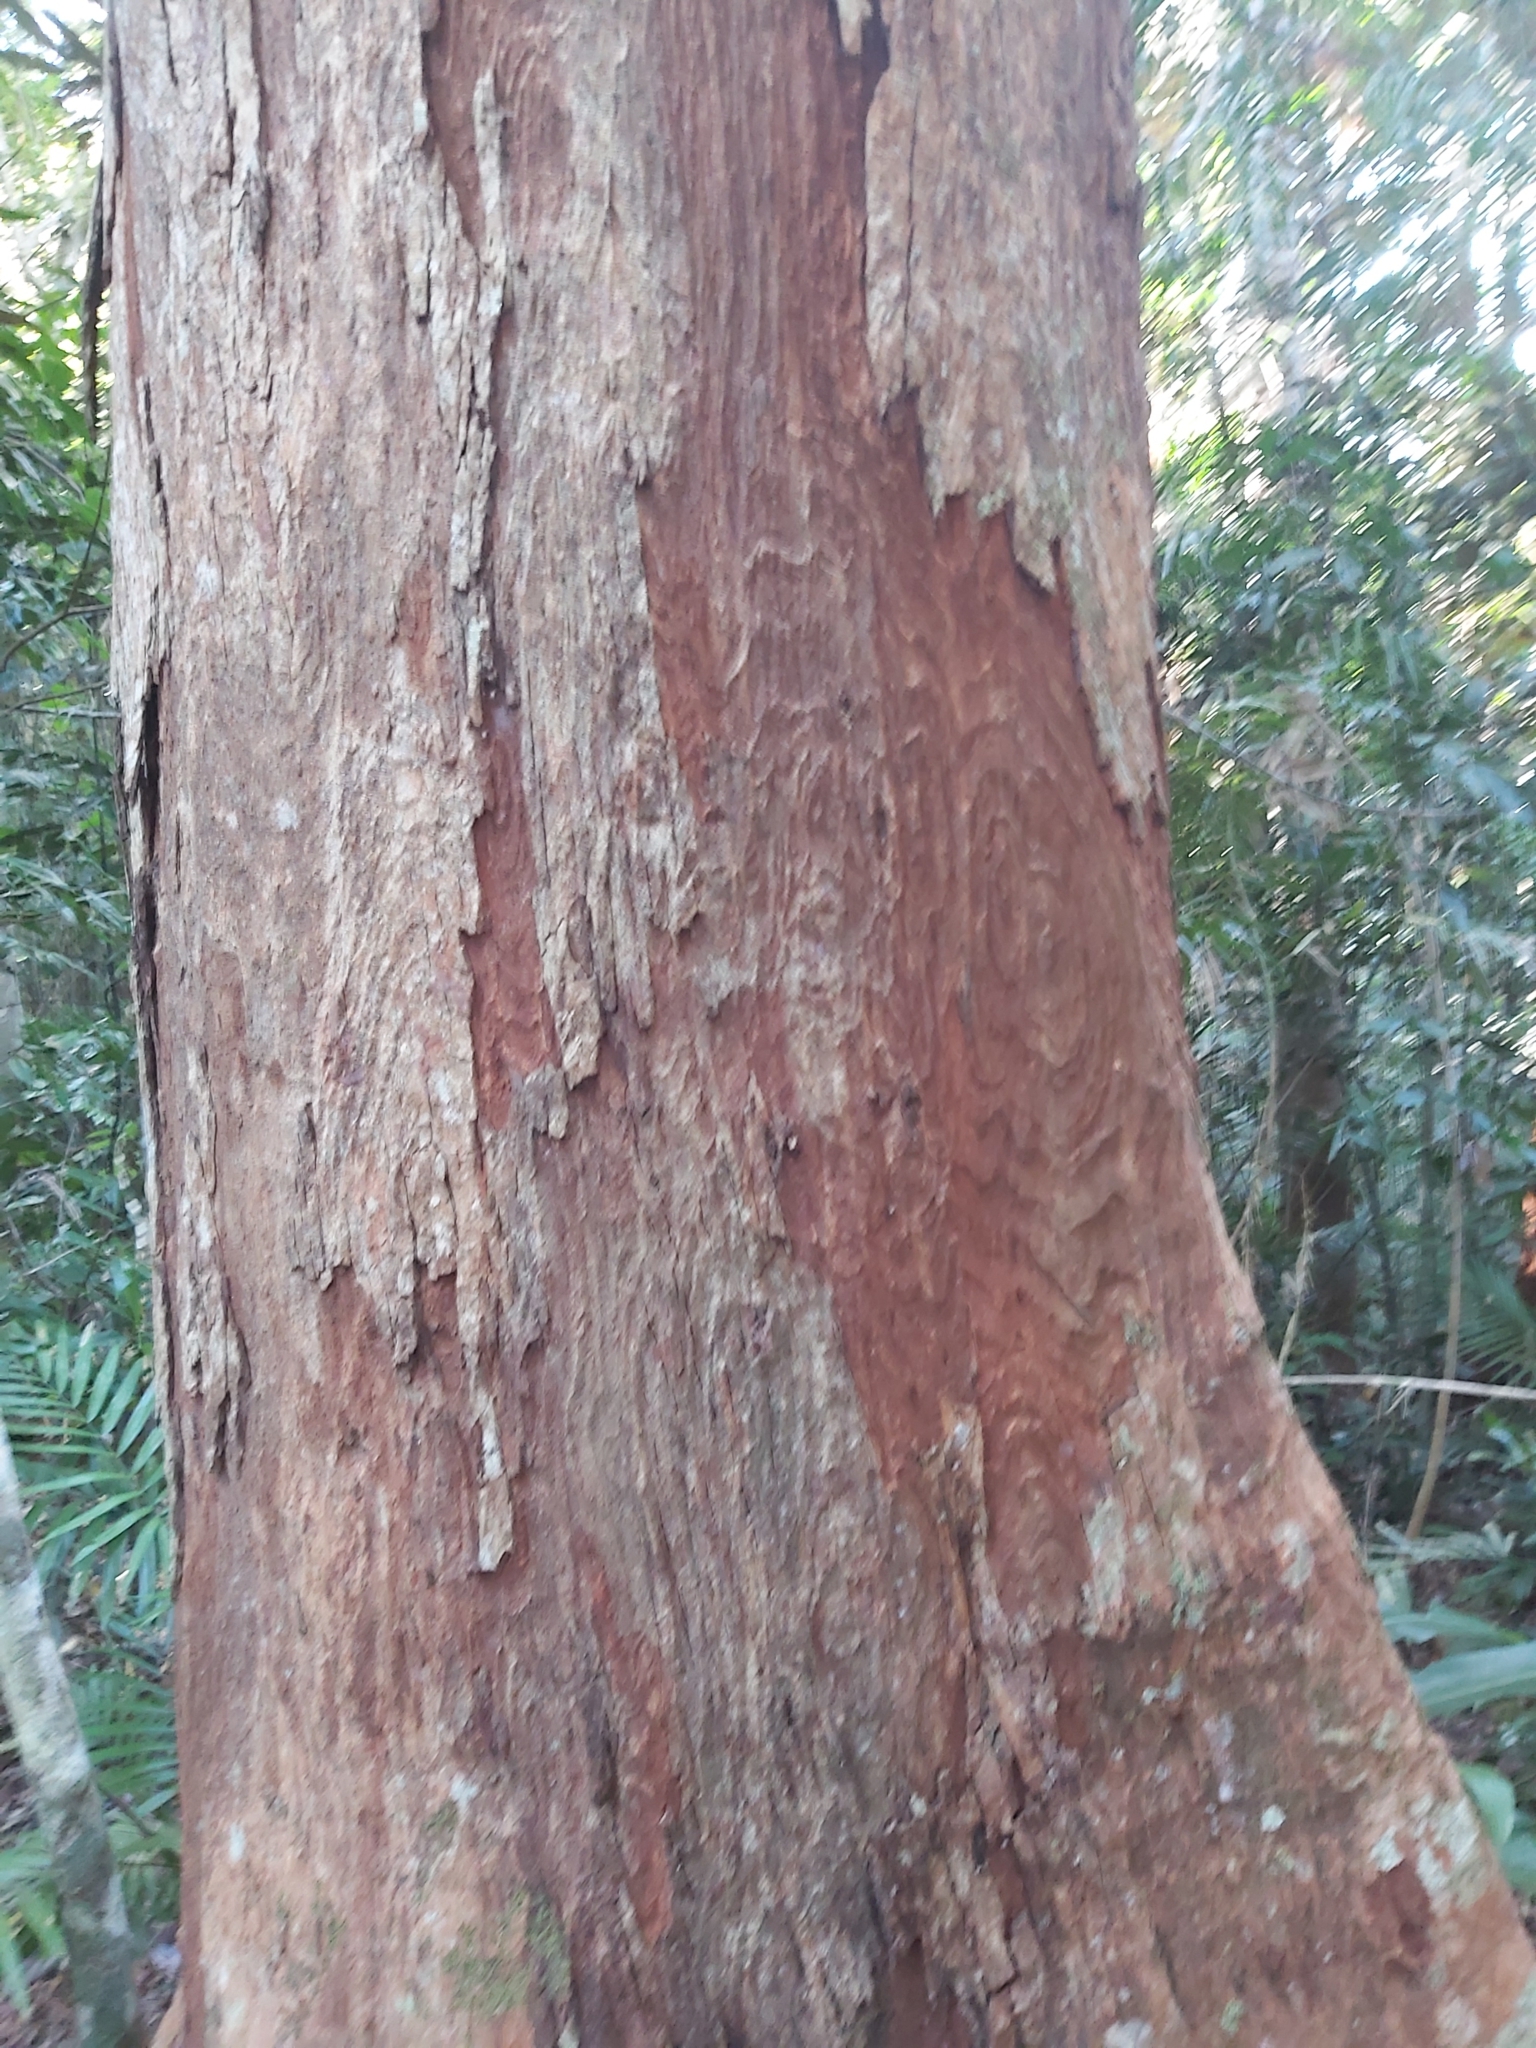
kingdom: Plantae
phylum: Tracheophyta
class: Magnoliopsida
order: Myrtales
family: Myrtaceae
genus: Syzygium
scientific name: Syzygium resa
